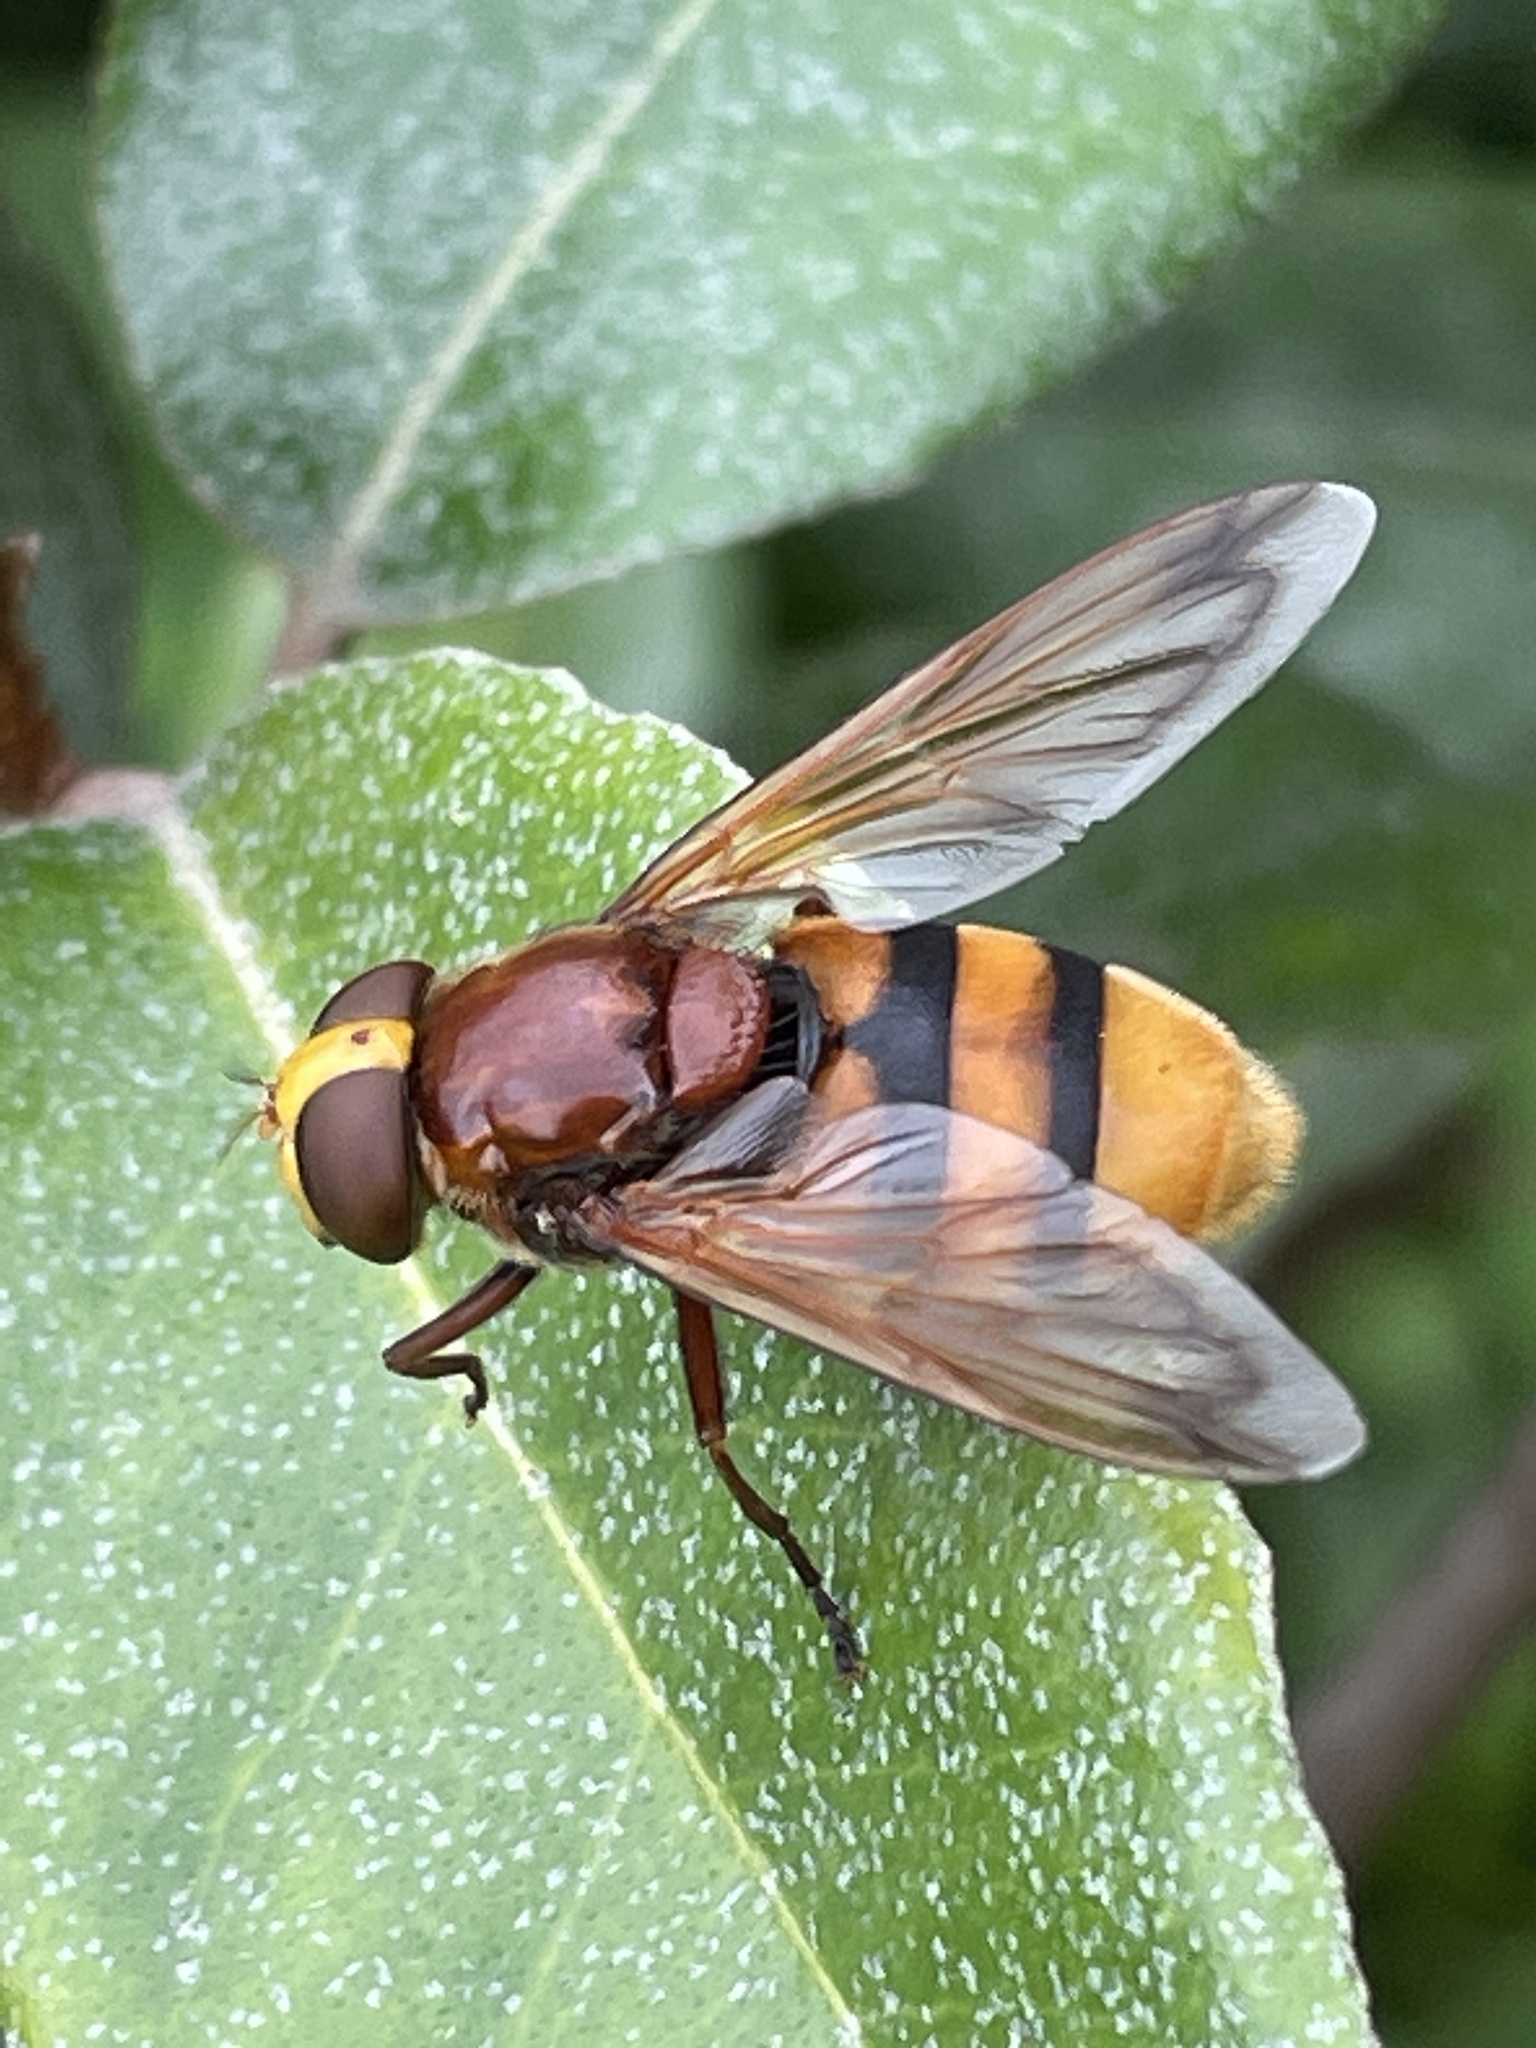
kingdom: Animalia
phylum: Arthropoda
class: Insecta
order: Diptera
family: Syrphidae
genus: Volucella
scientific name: Volucella zonaria
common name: Hornet hoverfly
